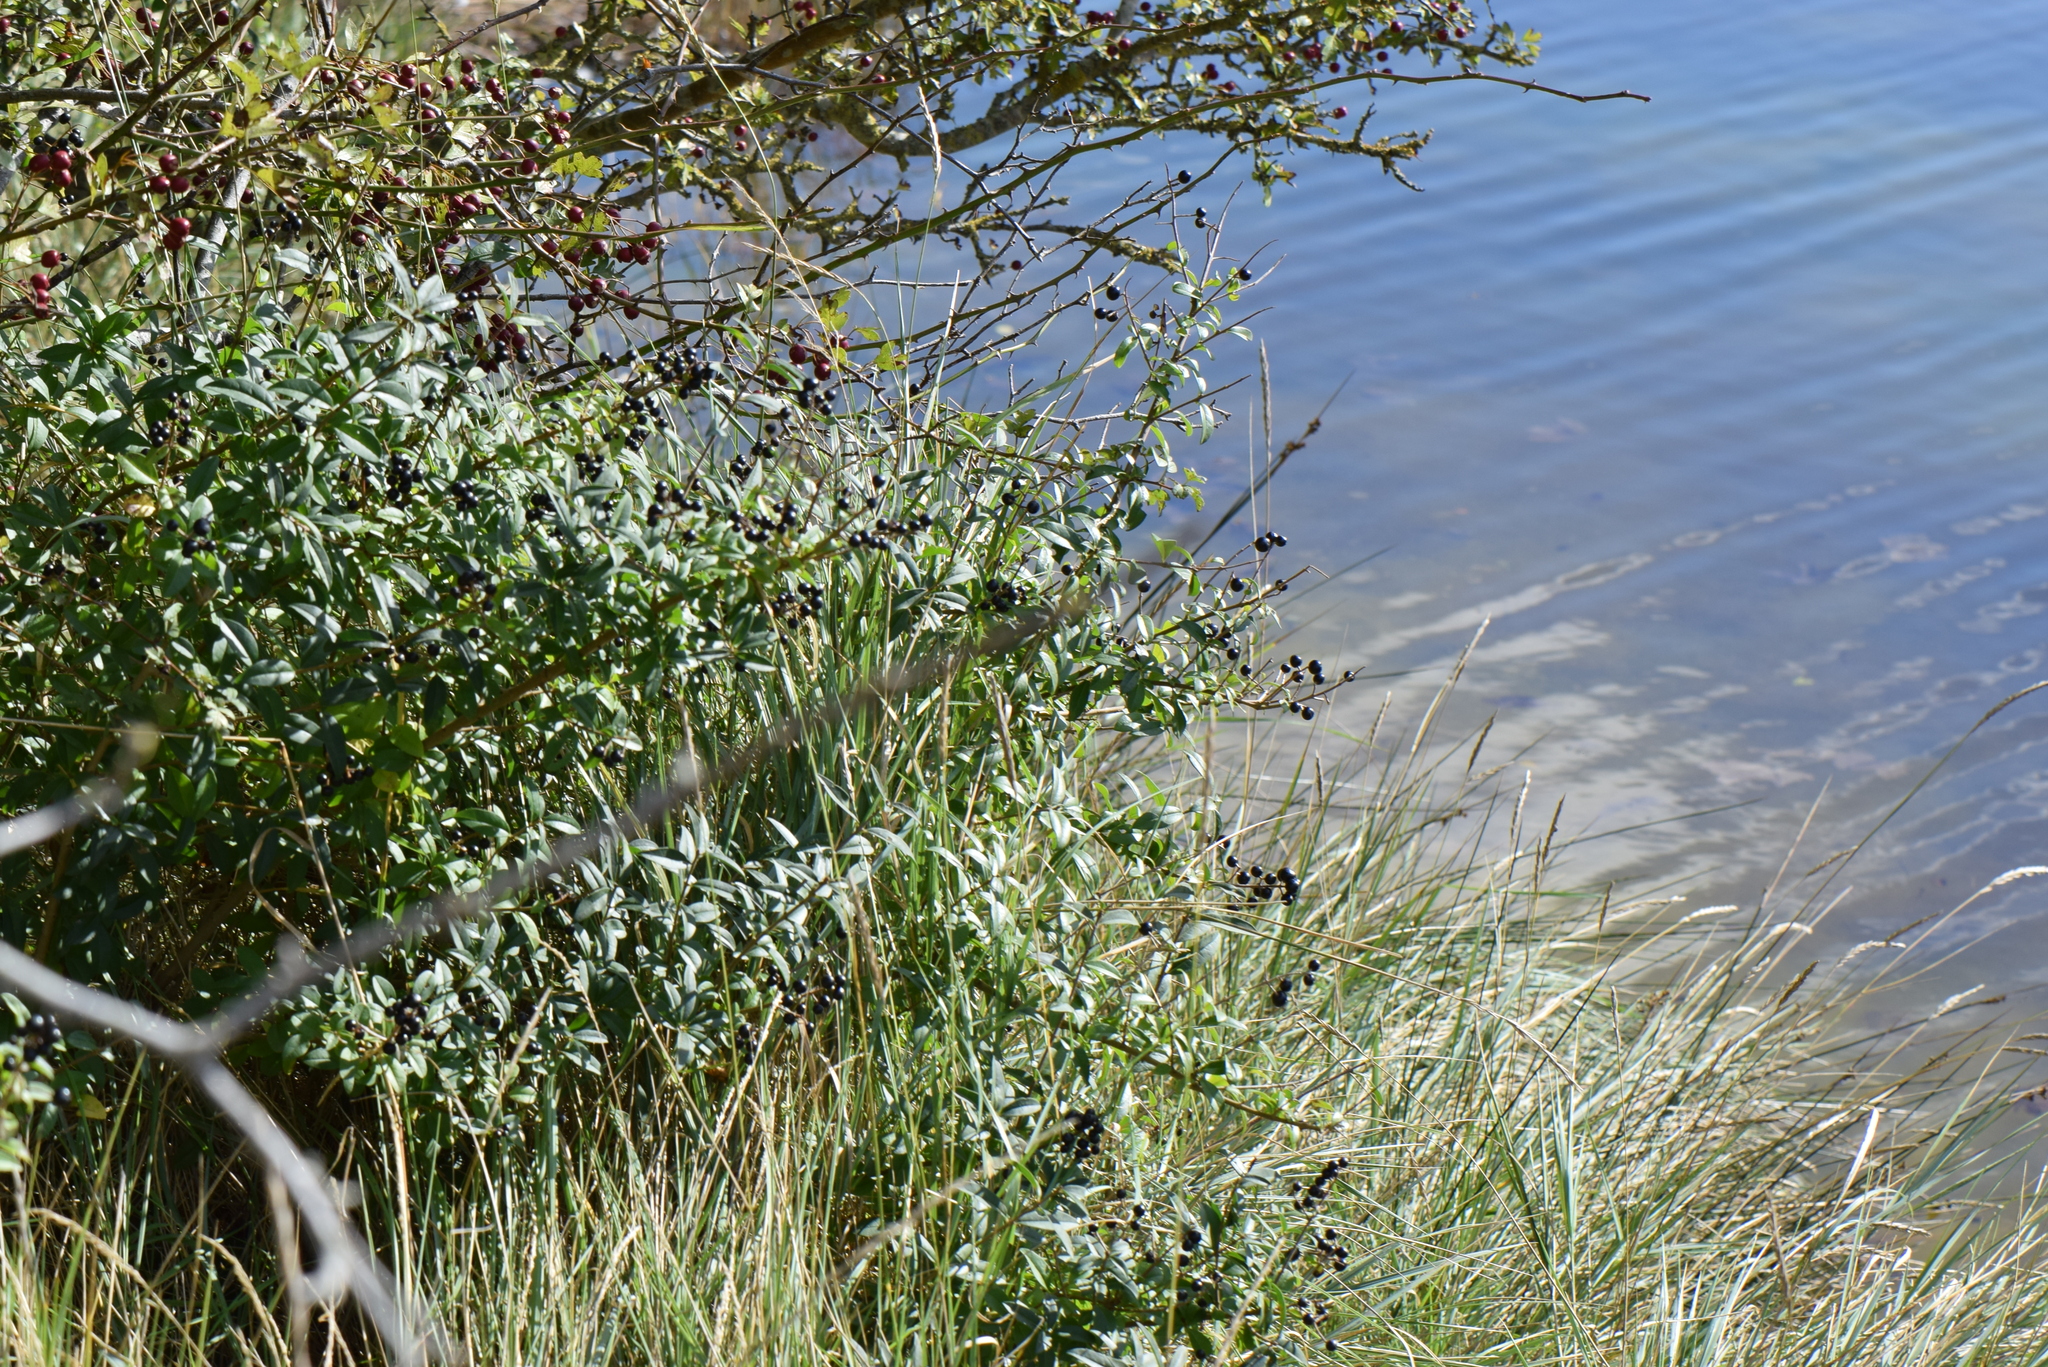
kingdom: Plantae
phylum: Tracheophyta
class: Magnoliopsida
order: Lamiales
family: Oleaceae
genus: Ligustrum
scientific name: Ligustrum vulgare
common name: Wild privet
